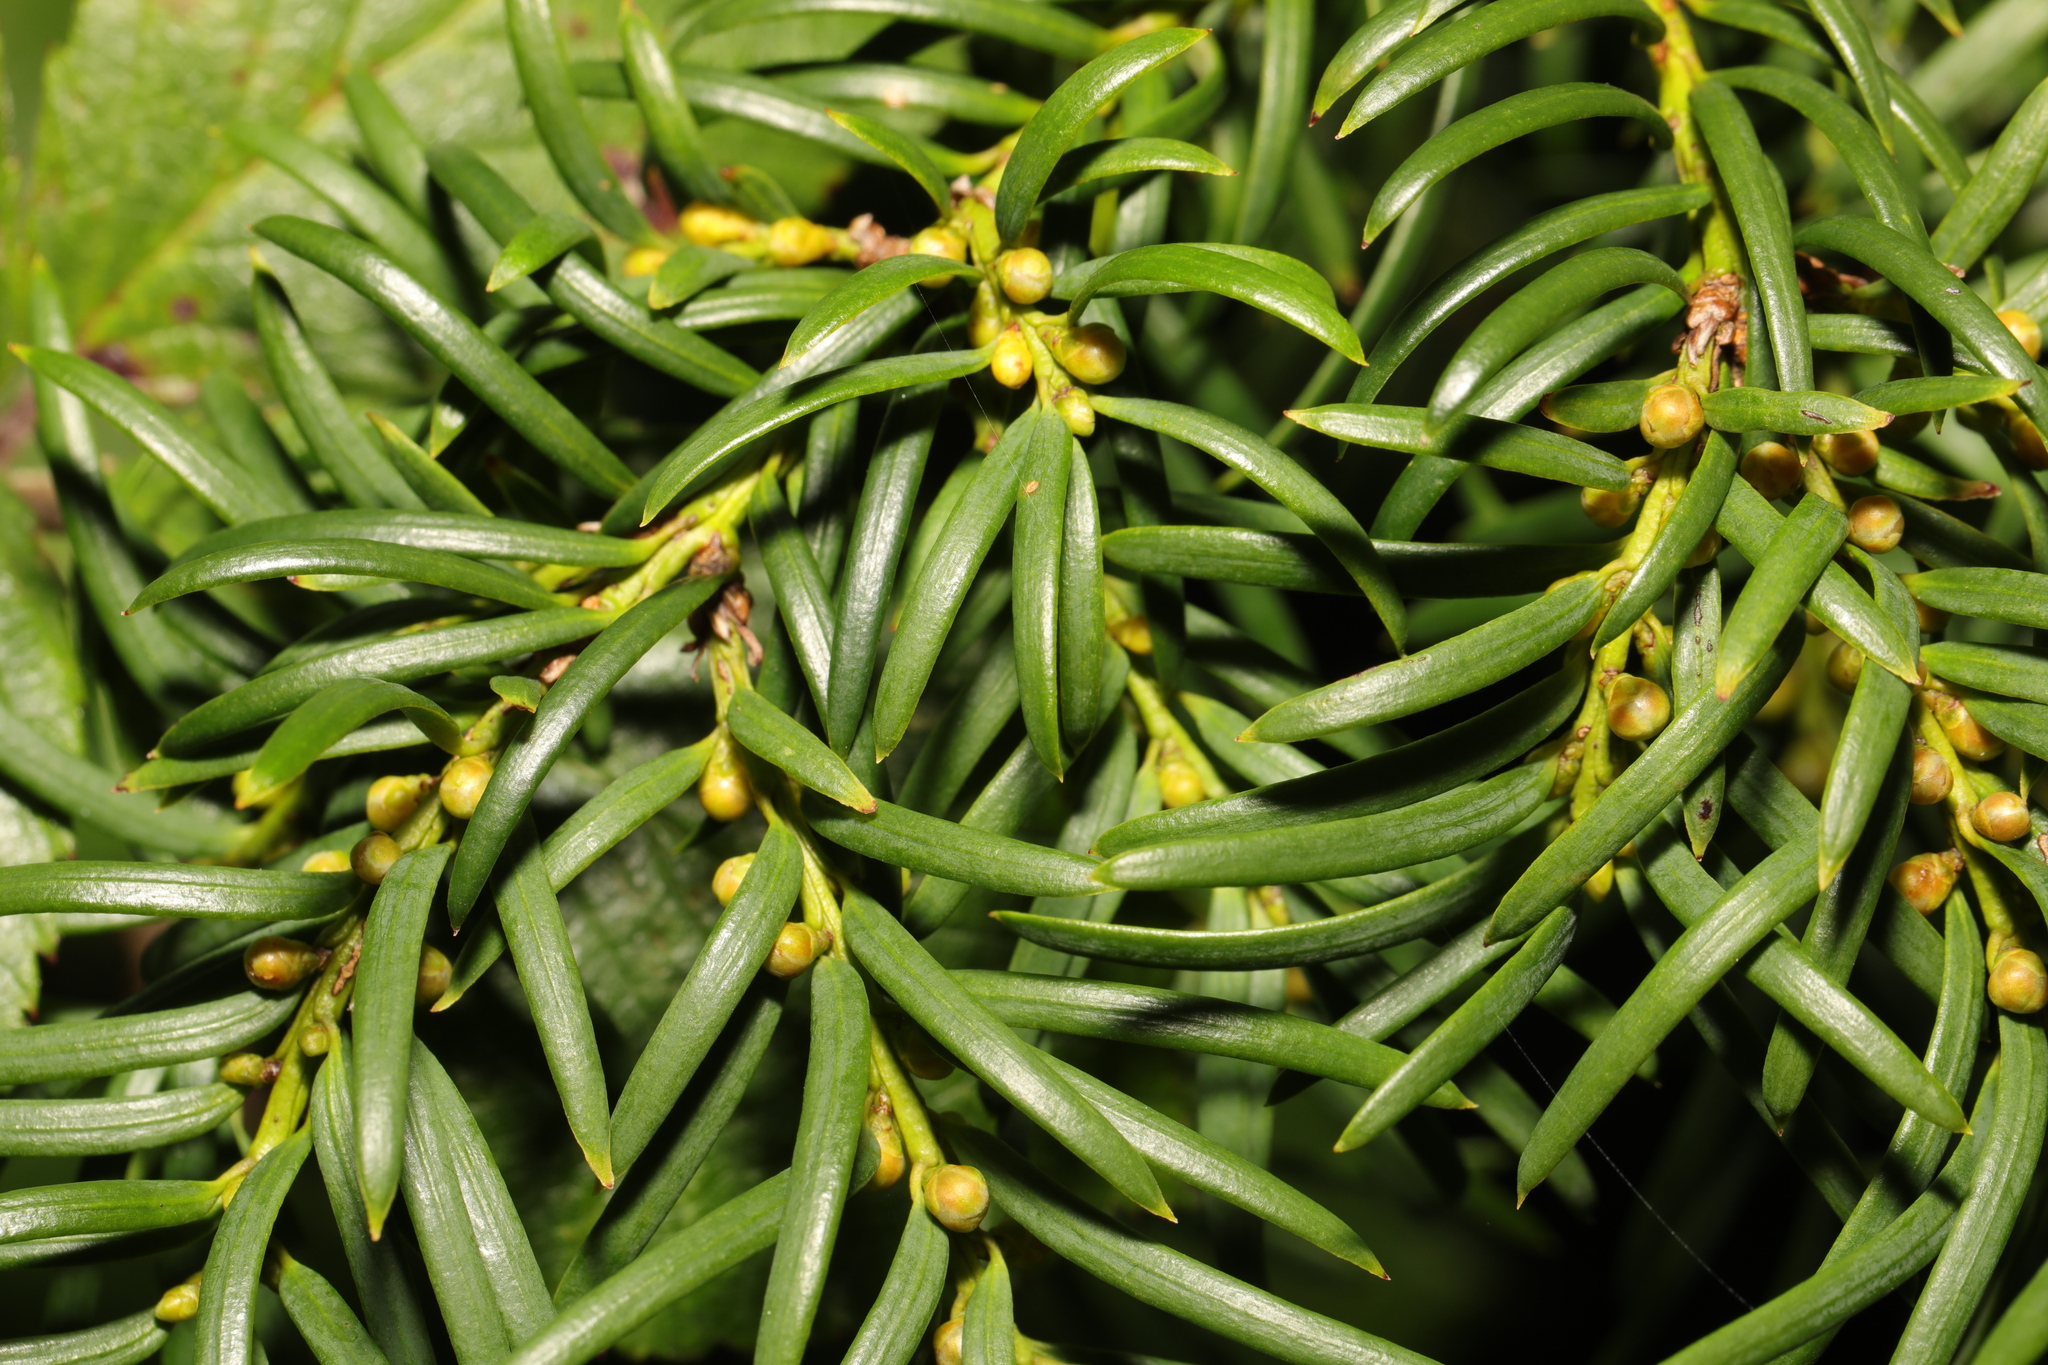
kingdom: Plantae
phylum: Tracheophyta
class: Pinopsida
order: Pinales
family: Taxaceae
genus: Taxus
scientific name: Taxus baccata
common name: Yew
